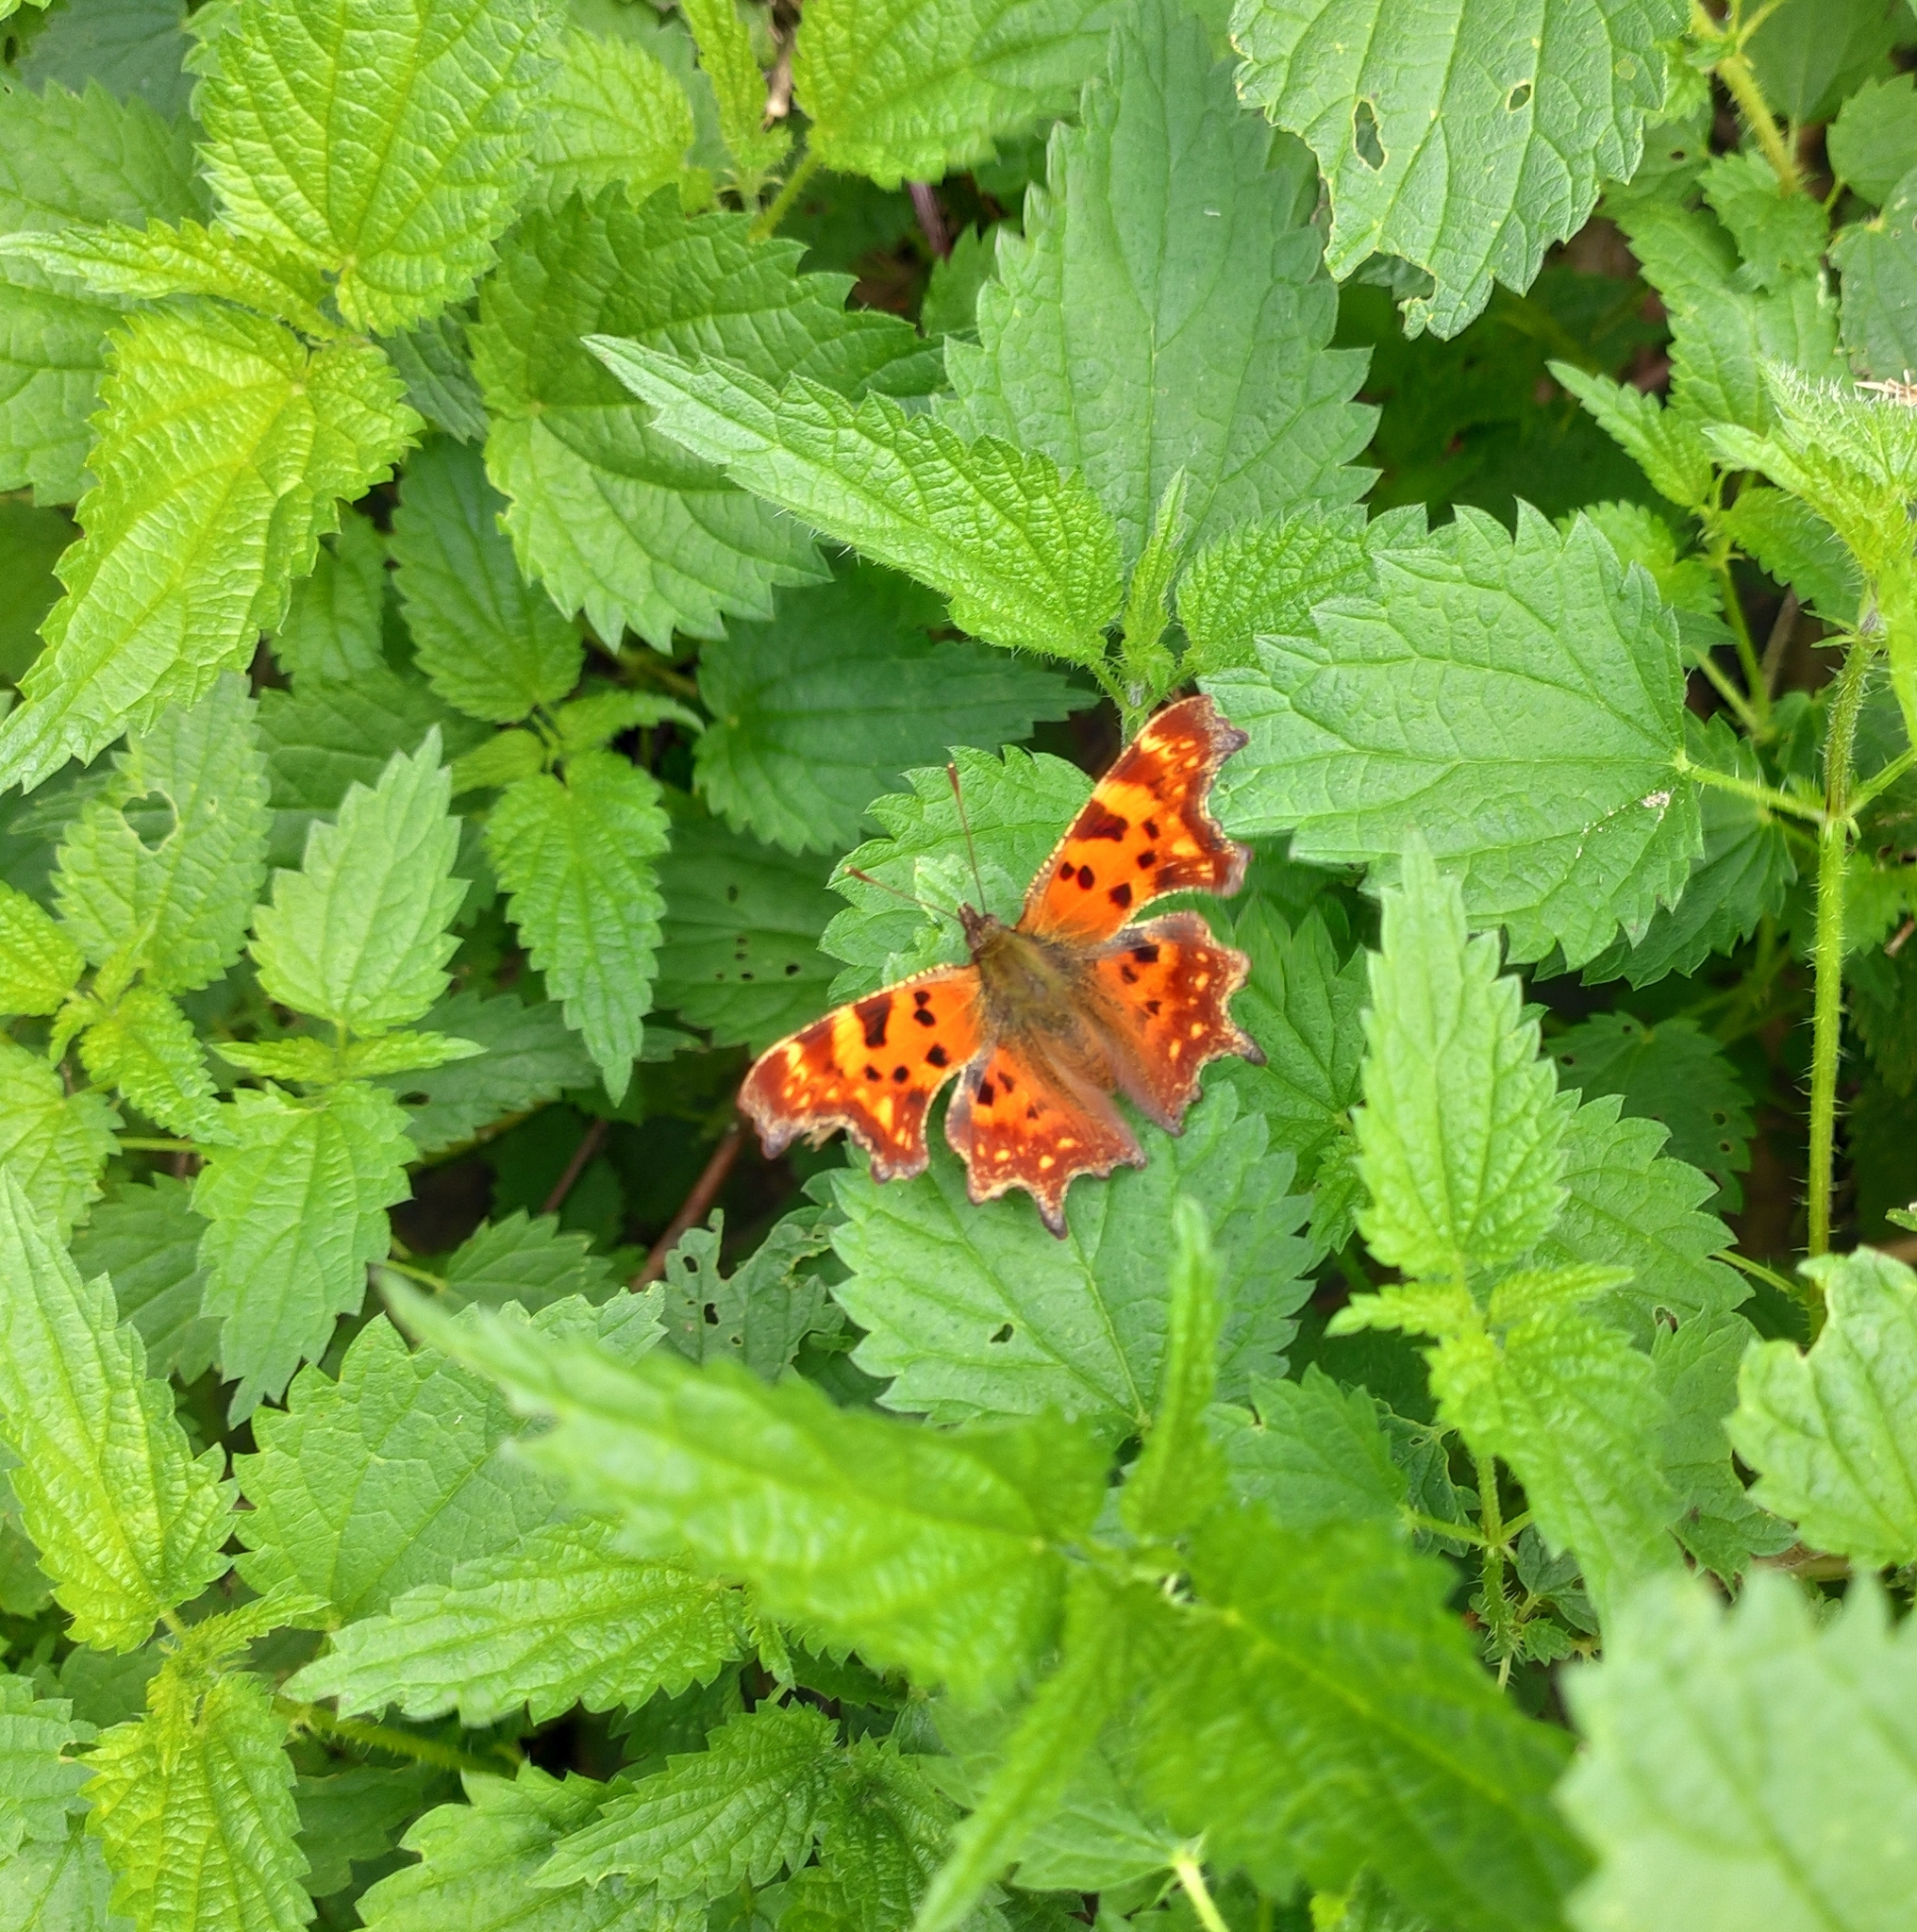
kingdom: Animalia
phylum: Arthropoda
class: Insecta
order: Lepidoptera
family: Nymphalidae
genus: Polygonia
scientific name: Polygonia c-album
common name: Comma
